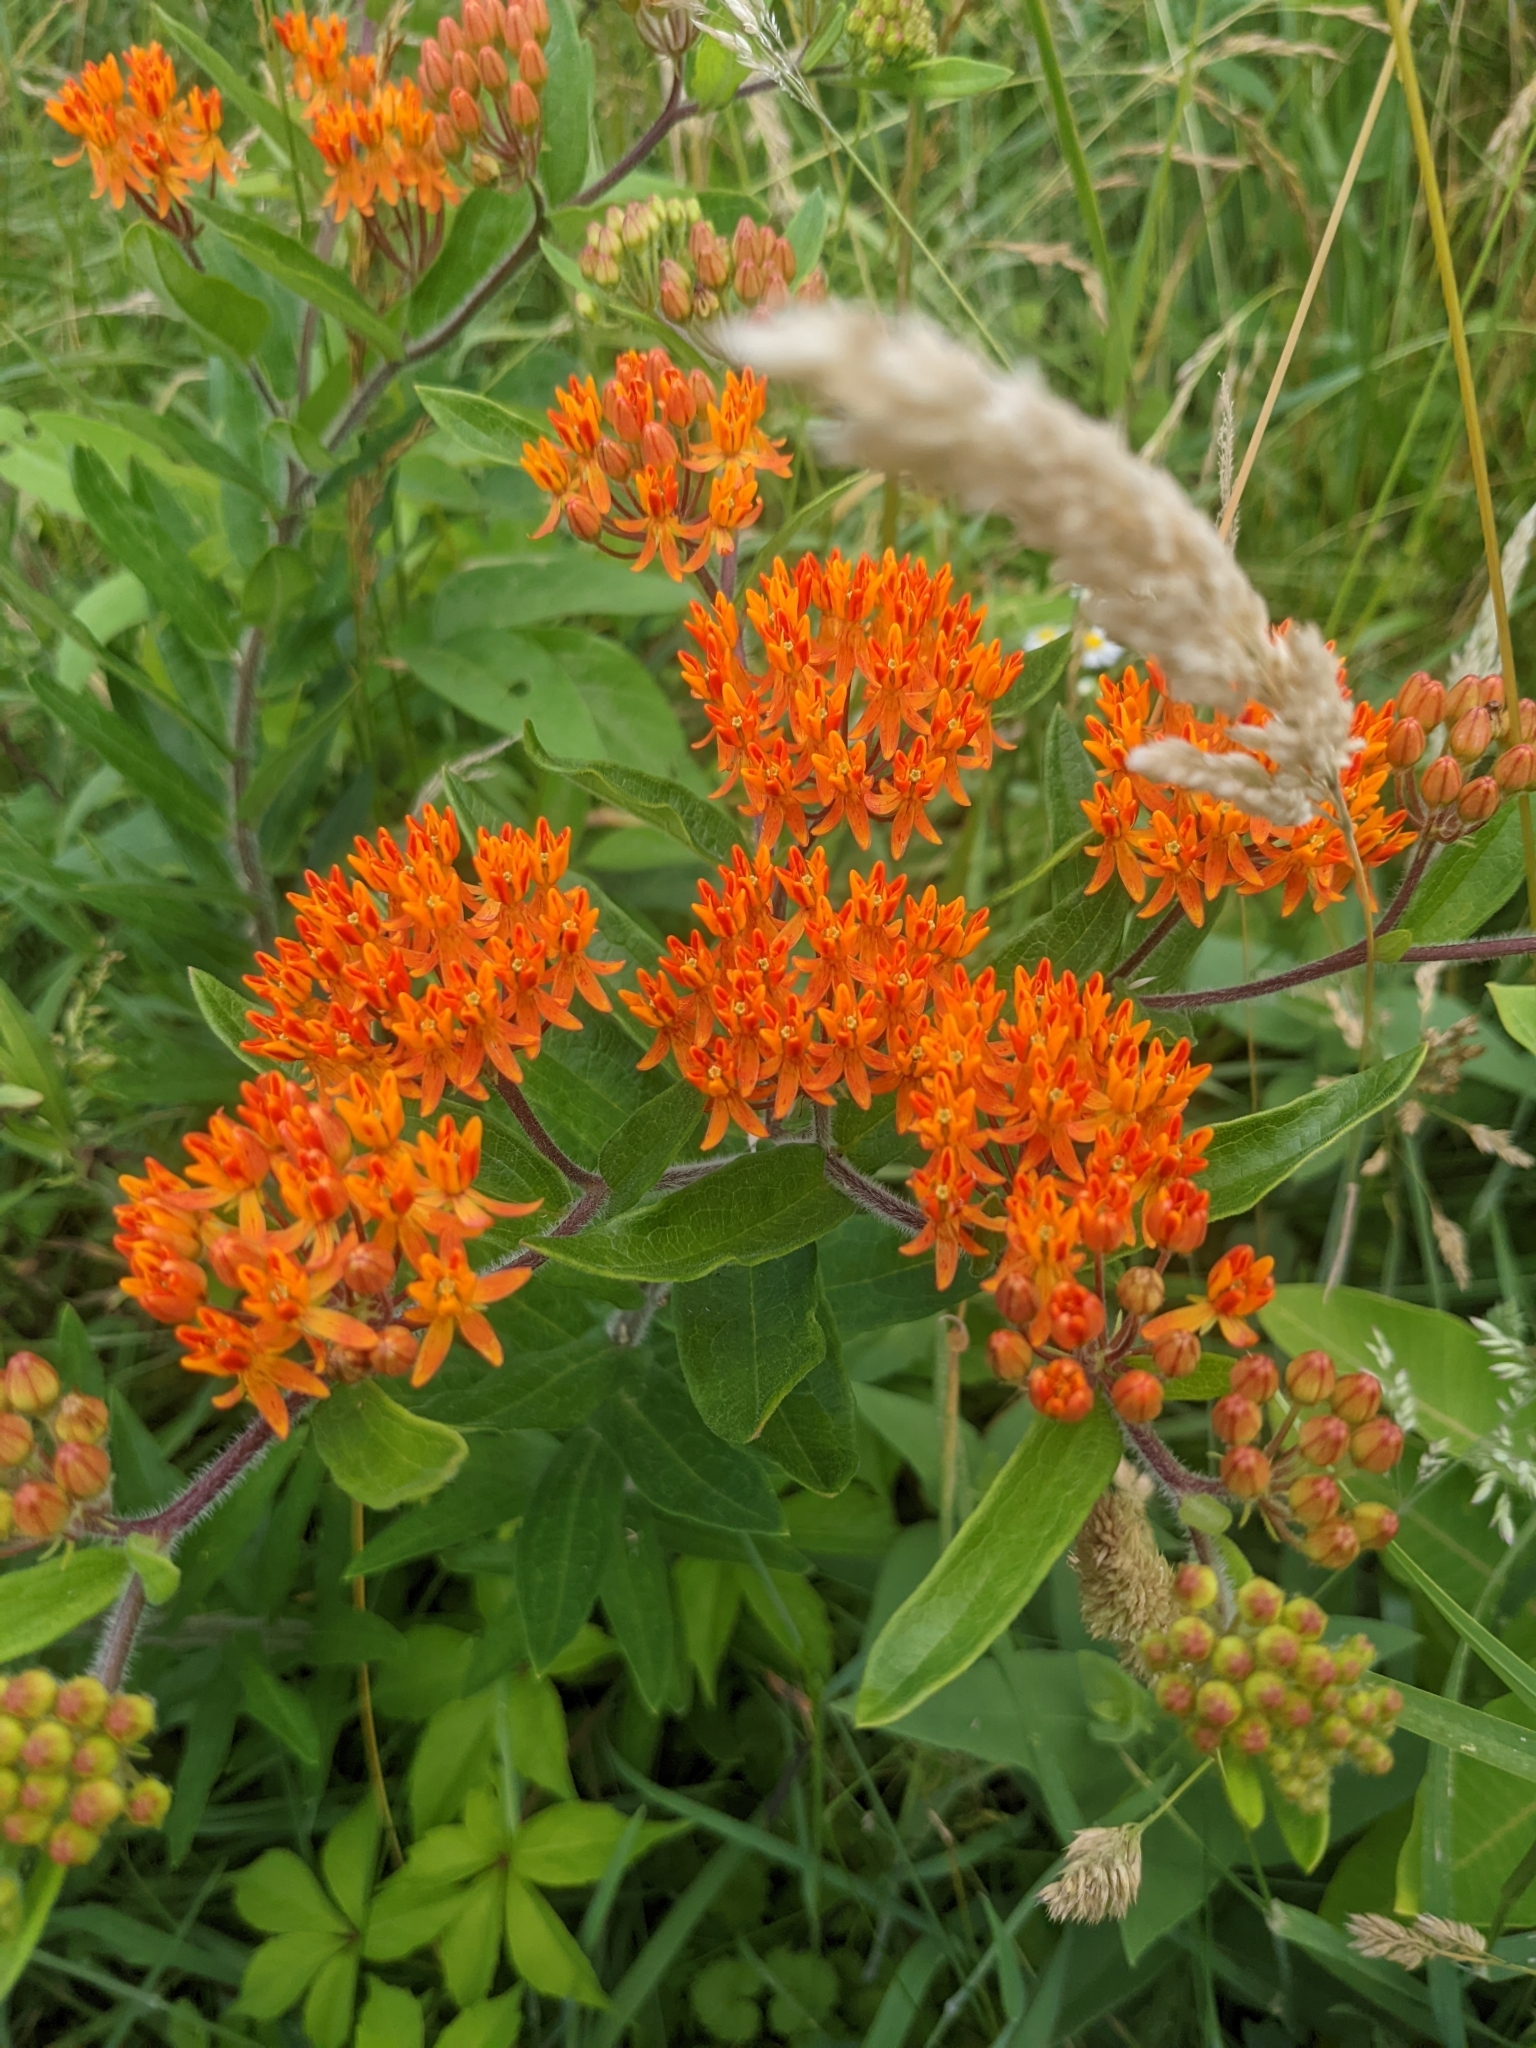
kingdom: Plantae
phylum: Tracheophyta
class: Magnoliopsida
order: Gentianales
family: Apocynaceae
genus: Asclepias
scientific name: Asclepias tuberosa
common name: Butterfly milkweed
